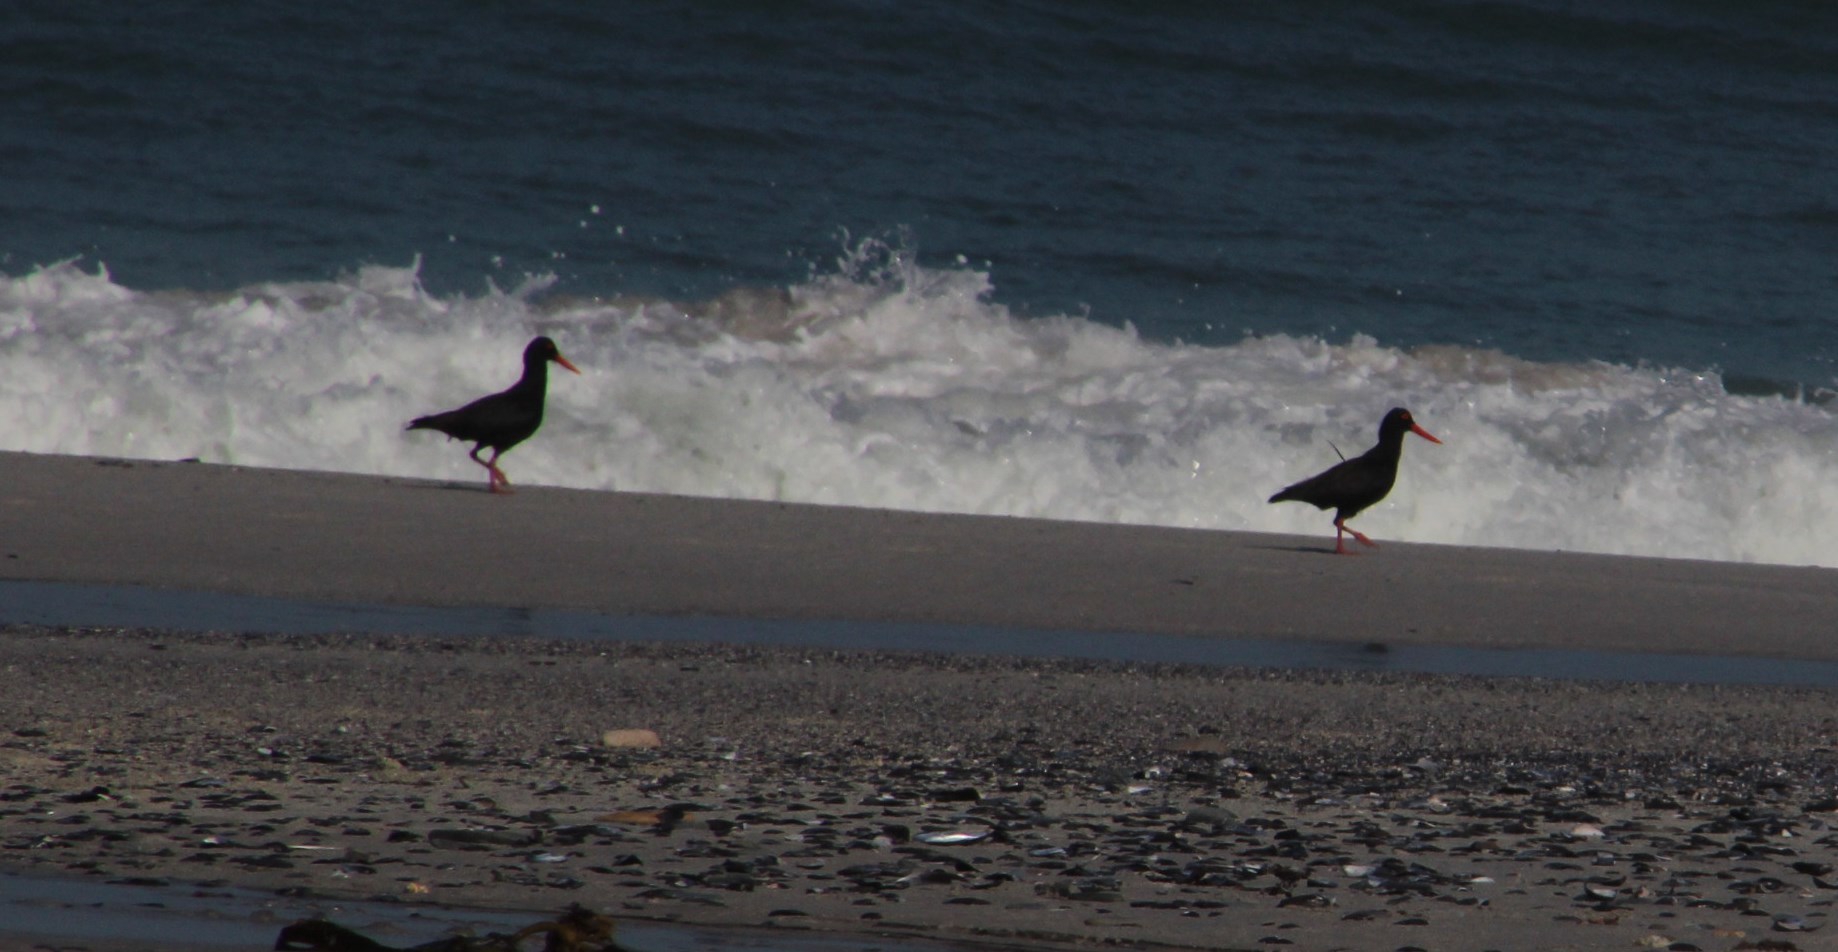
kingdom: Animalia
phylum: Chordata
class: Aves
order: Charadriiformes
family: Haematopodidae
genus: Haematopus
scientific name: Haematopus moquini
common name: African oystercatcher
